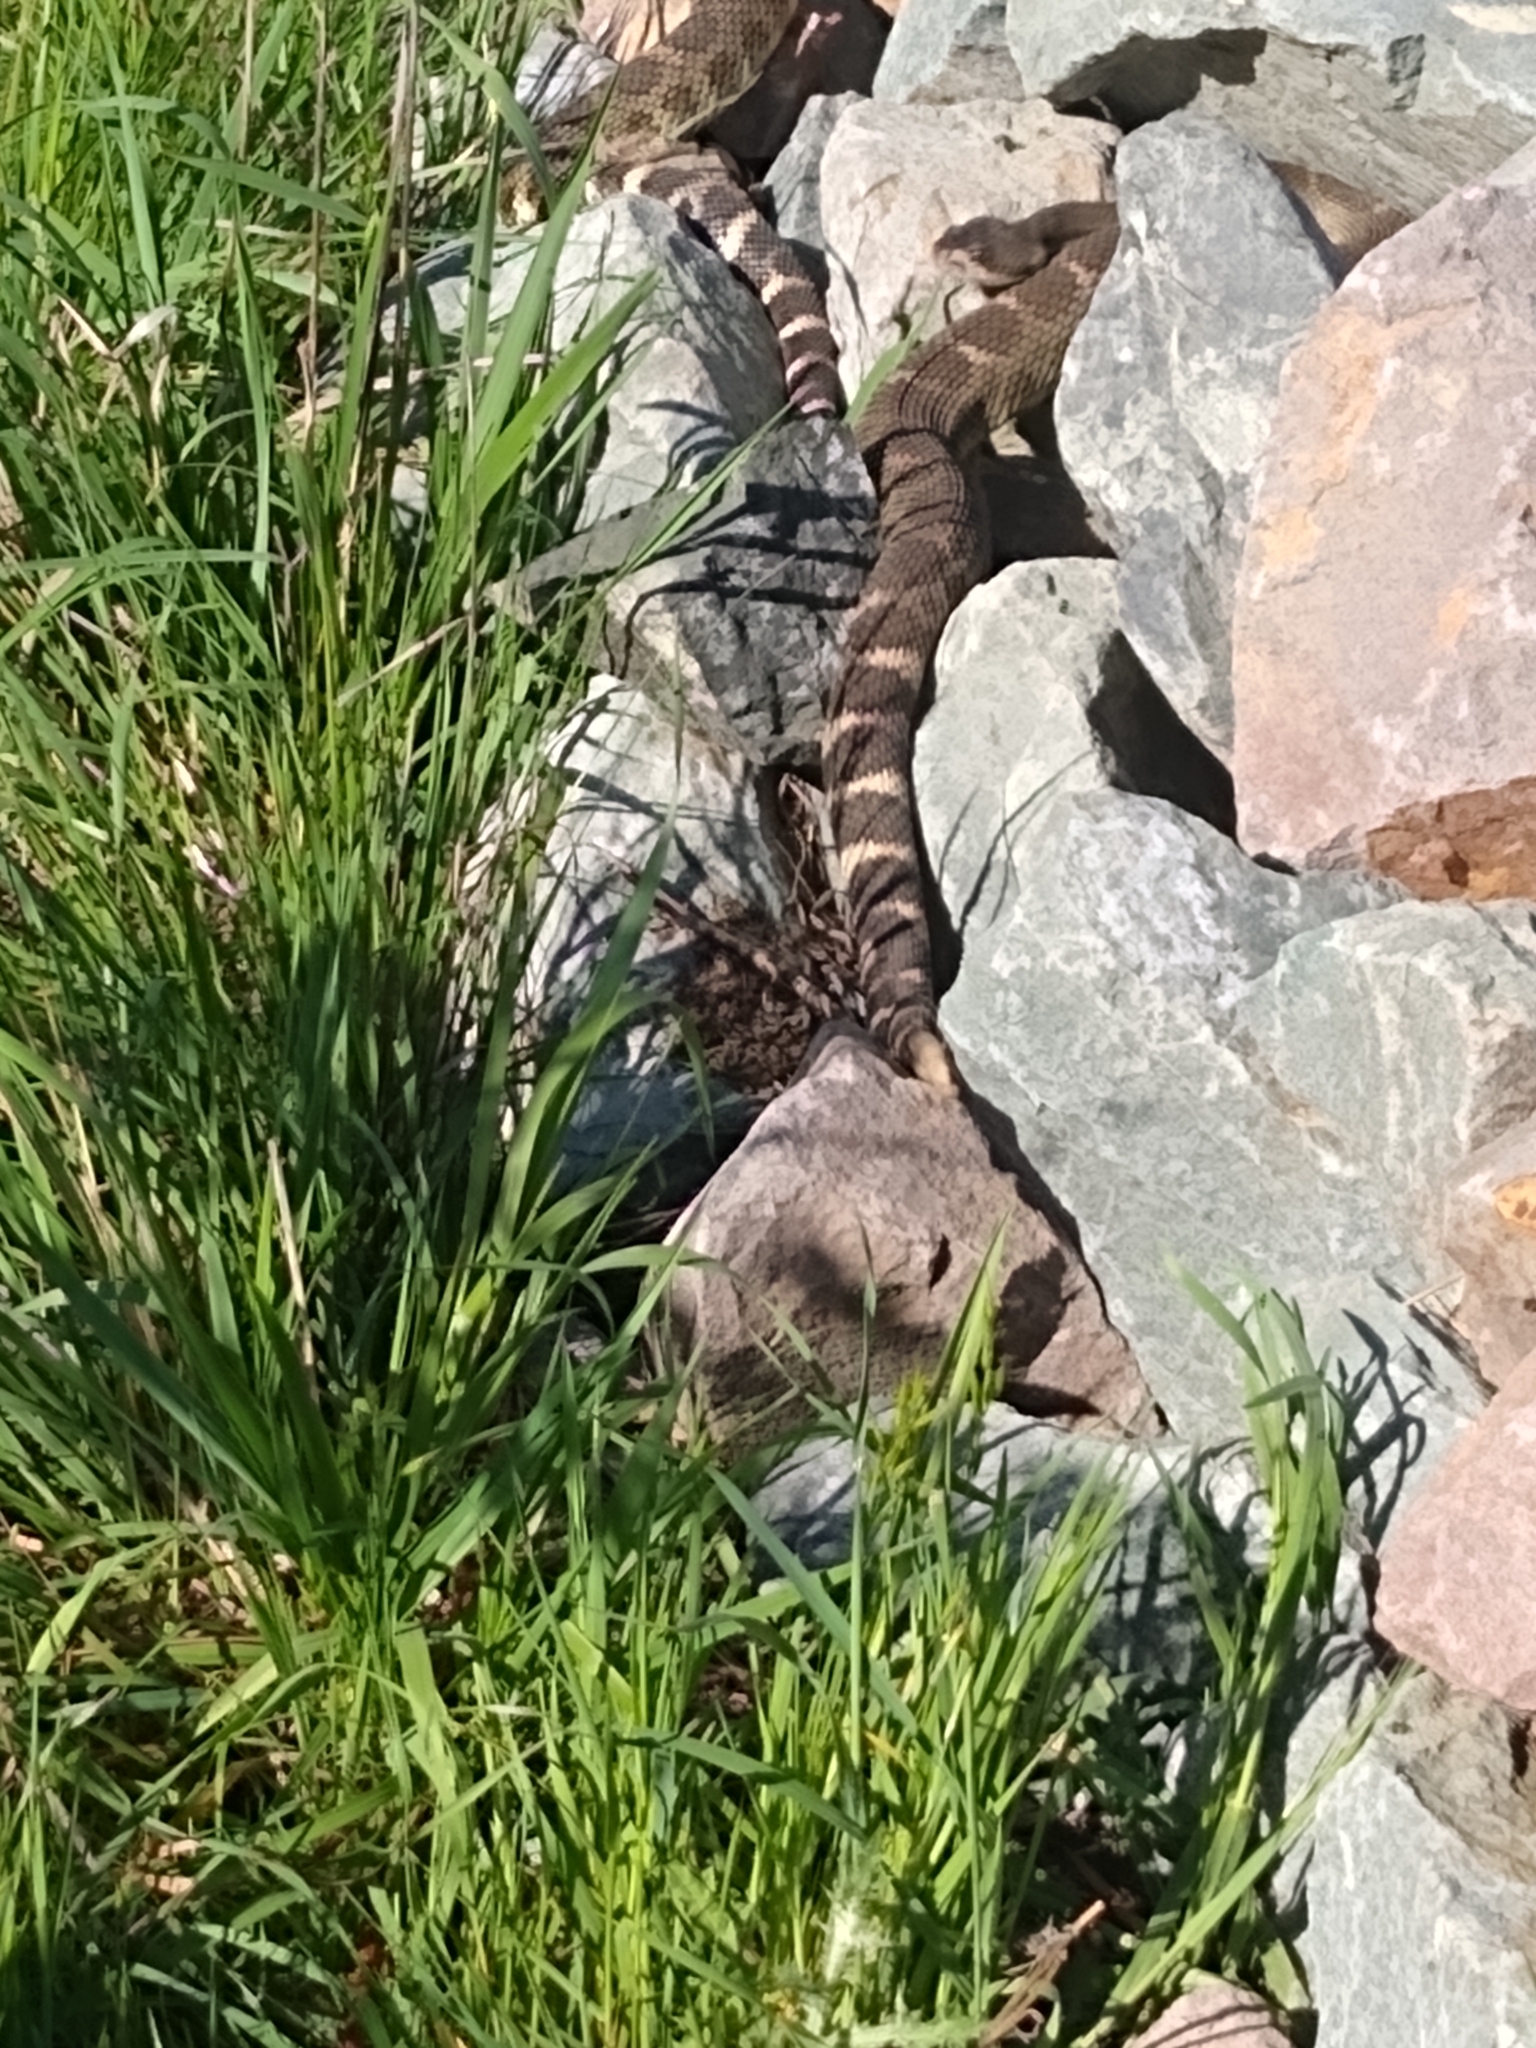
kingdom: Animalia
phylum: Chordata
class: Squamata
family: Viperidae
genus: Crotalus
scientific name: Crotalus oreganus
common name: Abyssus
